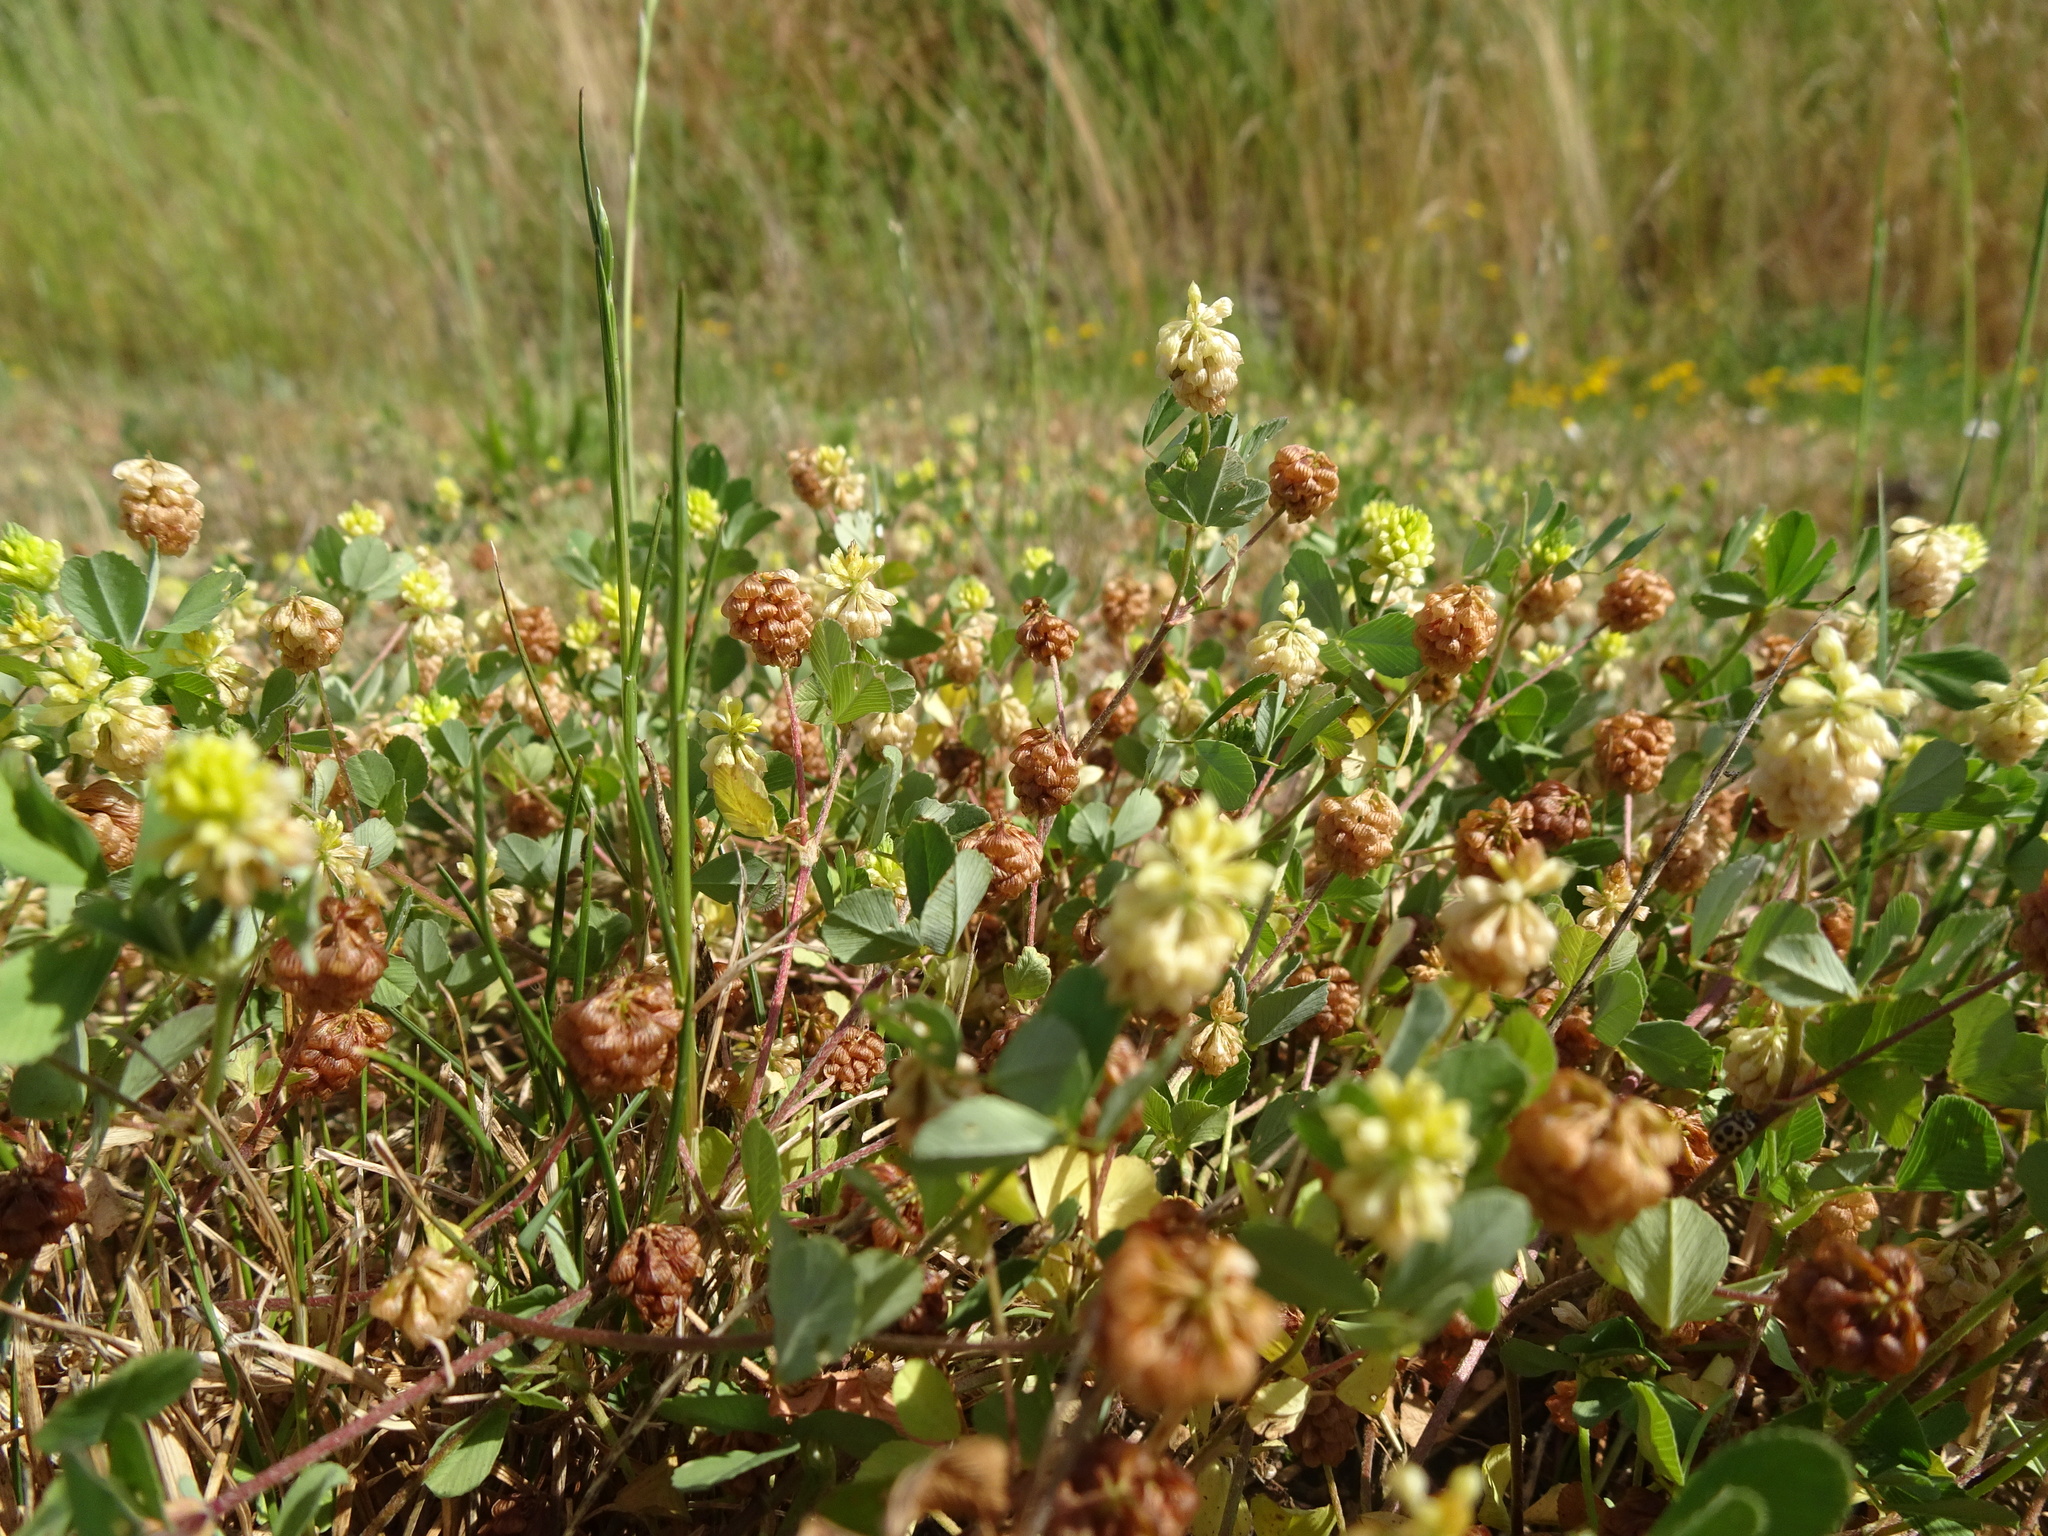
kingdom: Plantae
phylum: Tracheophyta
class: Magnoliopsida
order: Fabales
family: Fabaceae
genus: Trifolium
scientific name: Trifolium campestre
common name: Field clover
